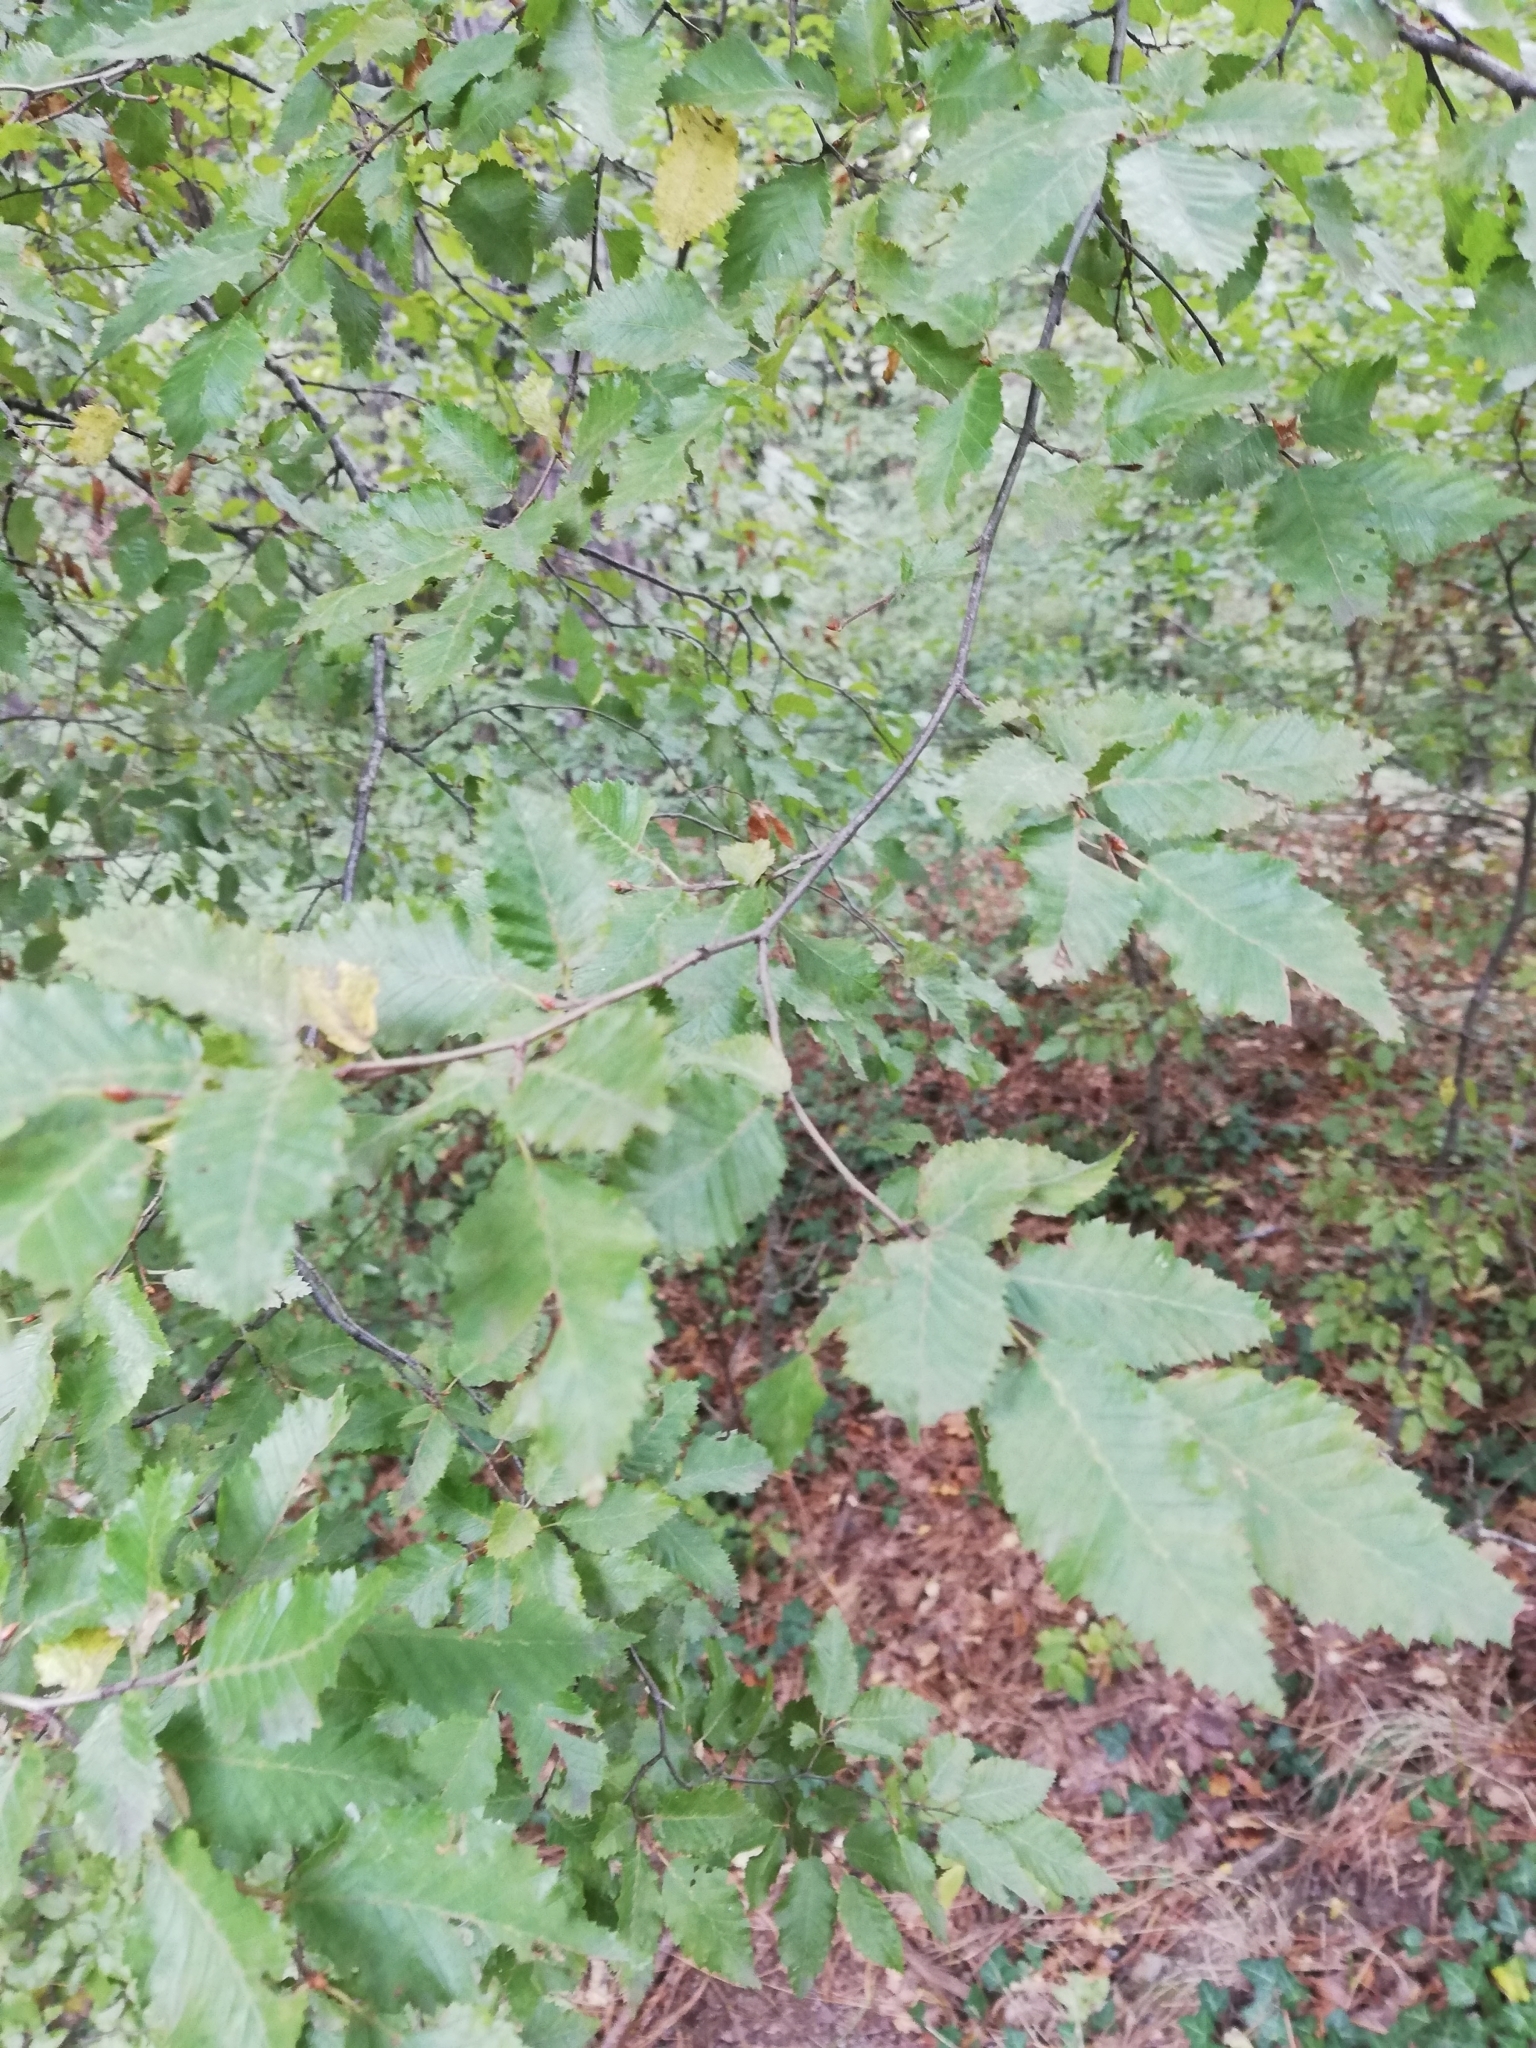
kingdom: Plantae
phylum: Tracheophyta
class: Magnoliopsida
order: Fagales
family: Betulaceae
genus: Carpinus
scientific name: Carpinus orientalis
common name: Eastern hornbeam
